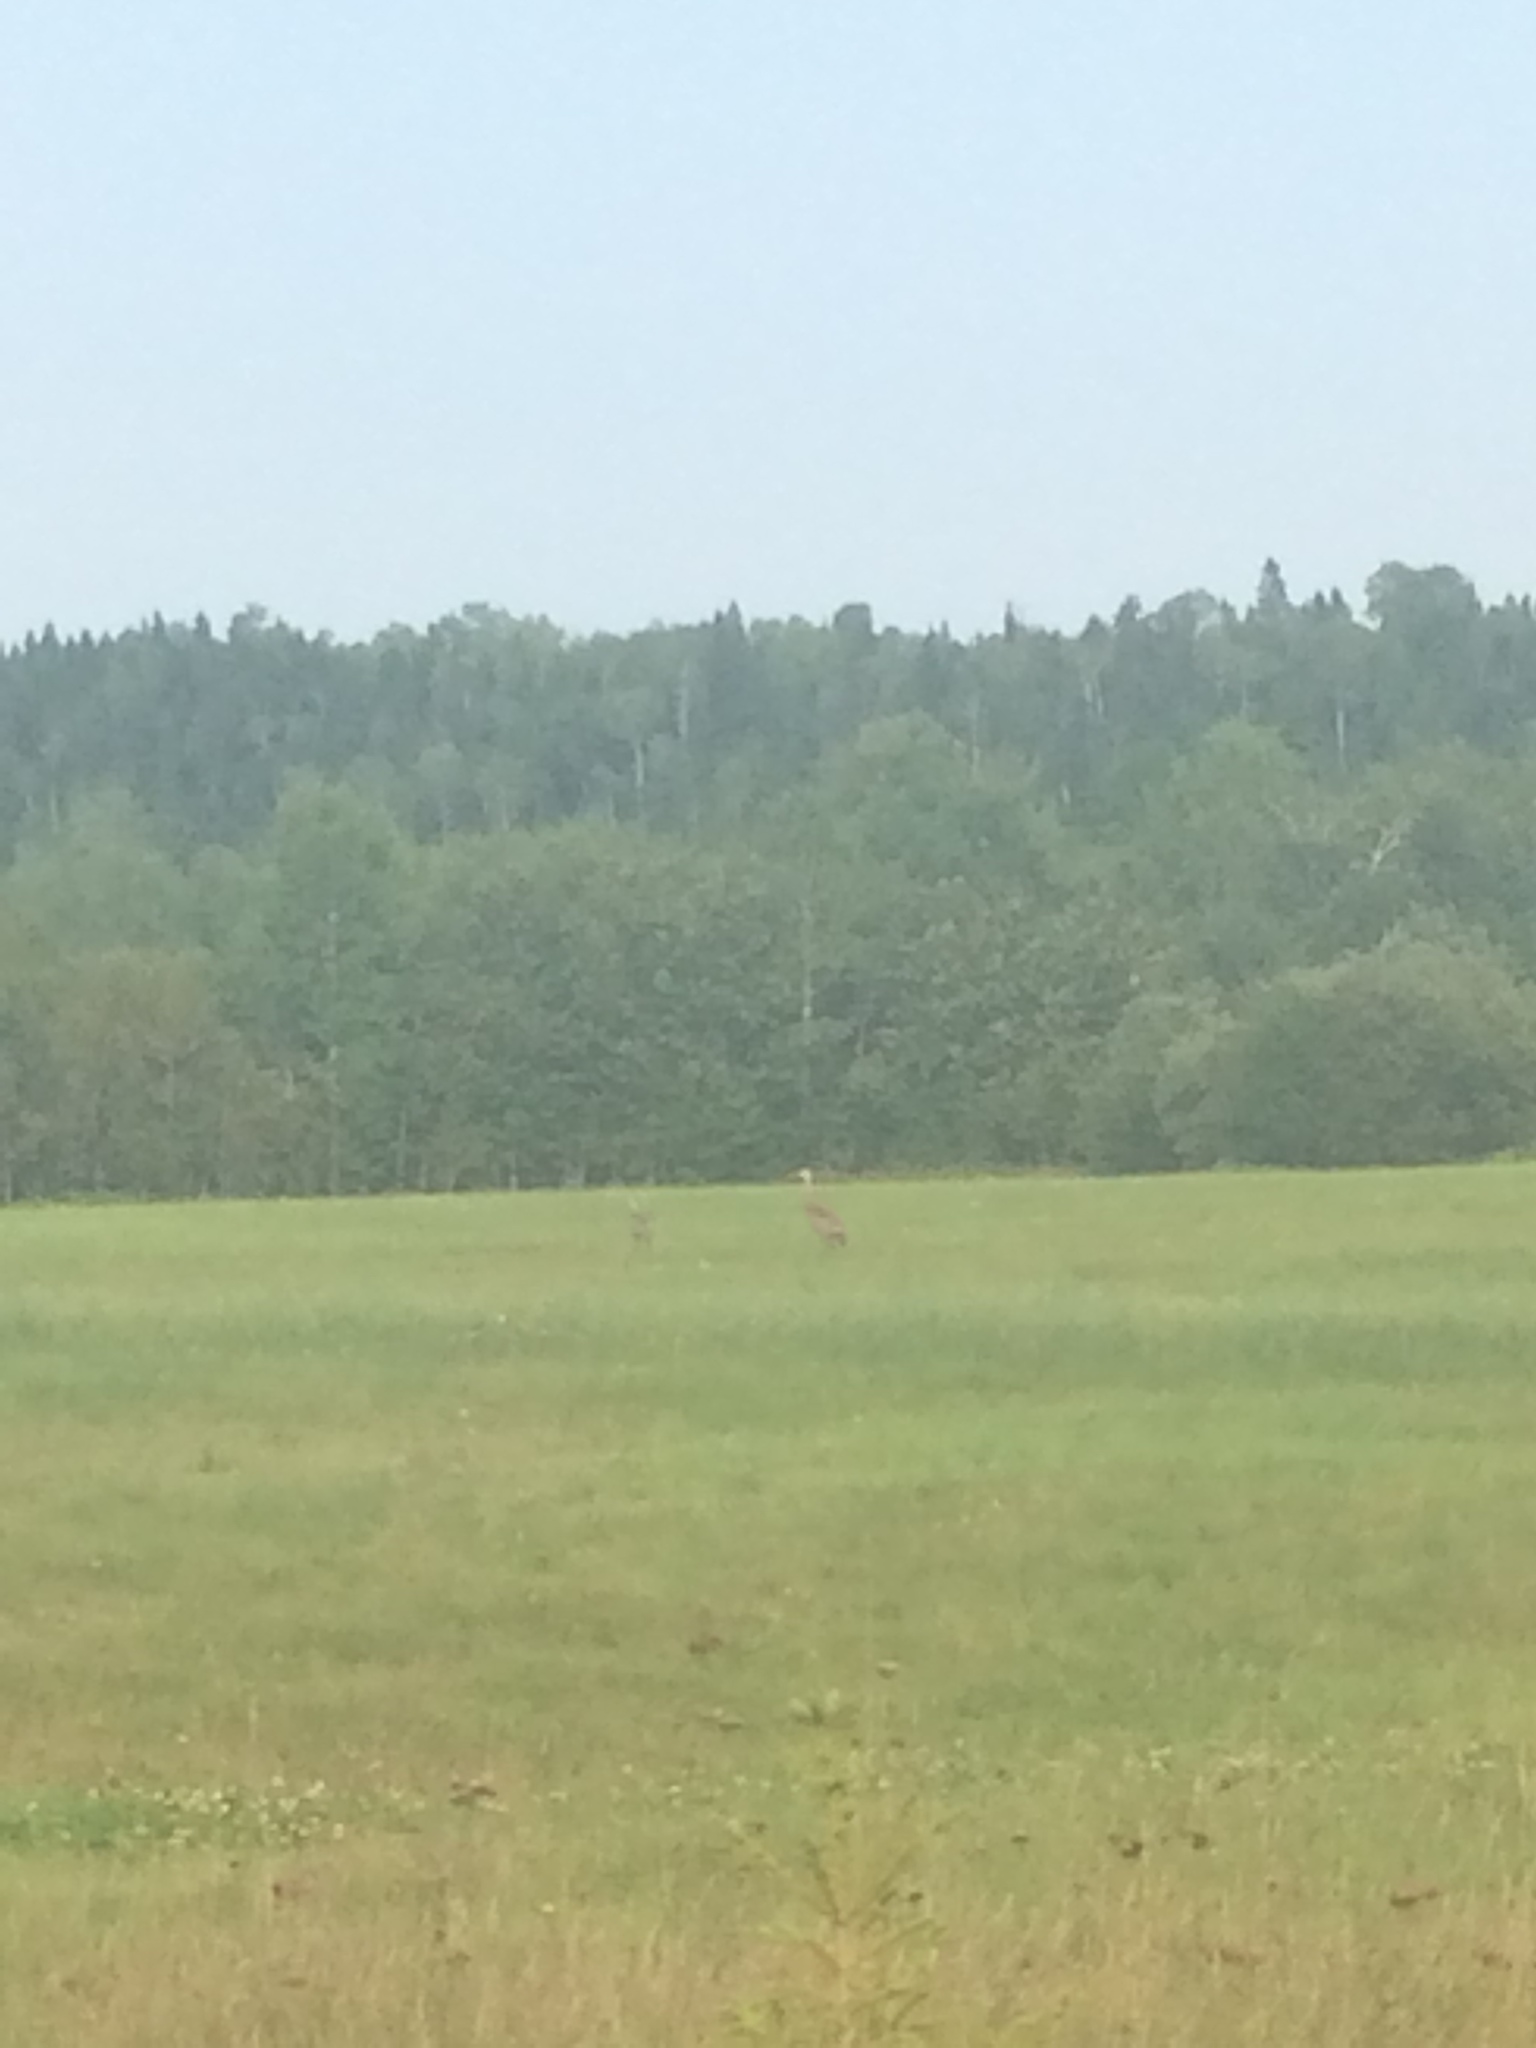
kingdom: Animalia
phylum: Chordata
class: Aves
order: Gruiformes
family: Gruidae
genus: Grus
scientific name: Grus canadensis
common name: Sandhill crane
